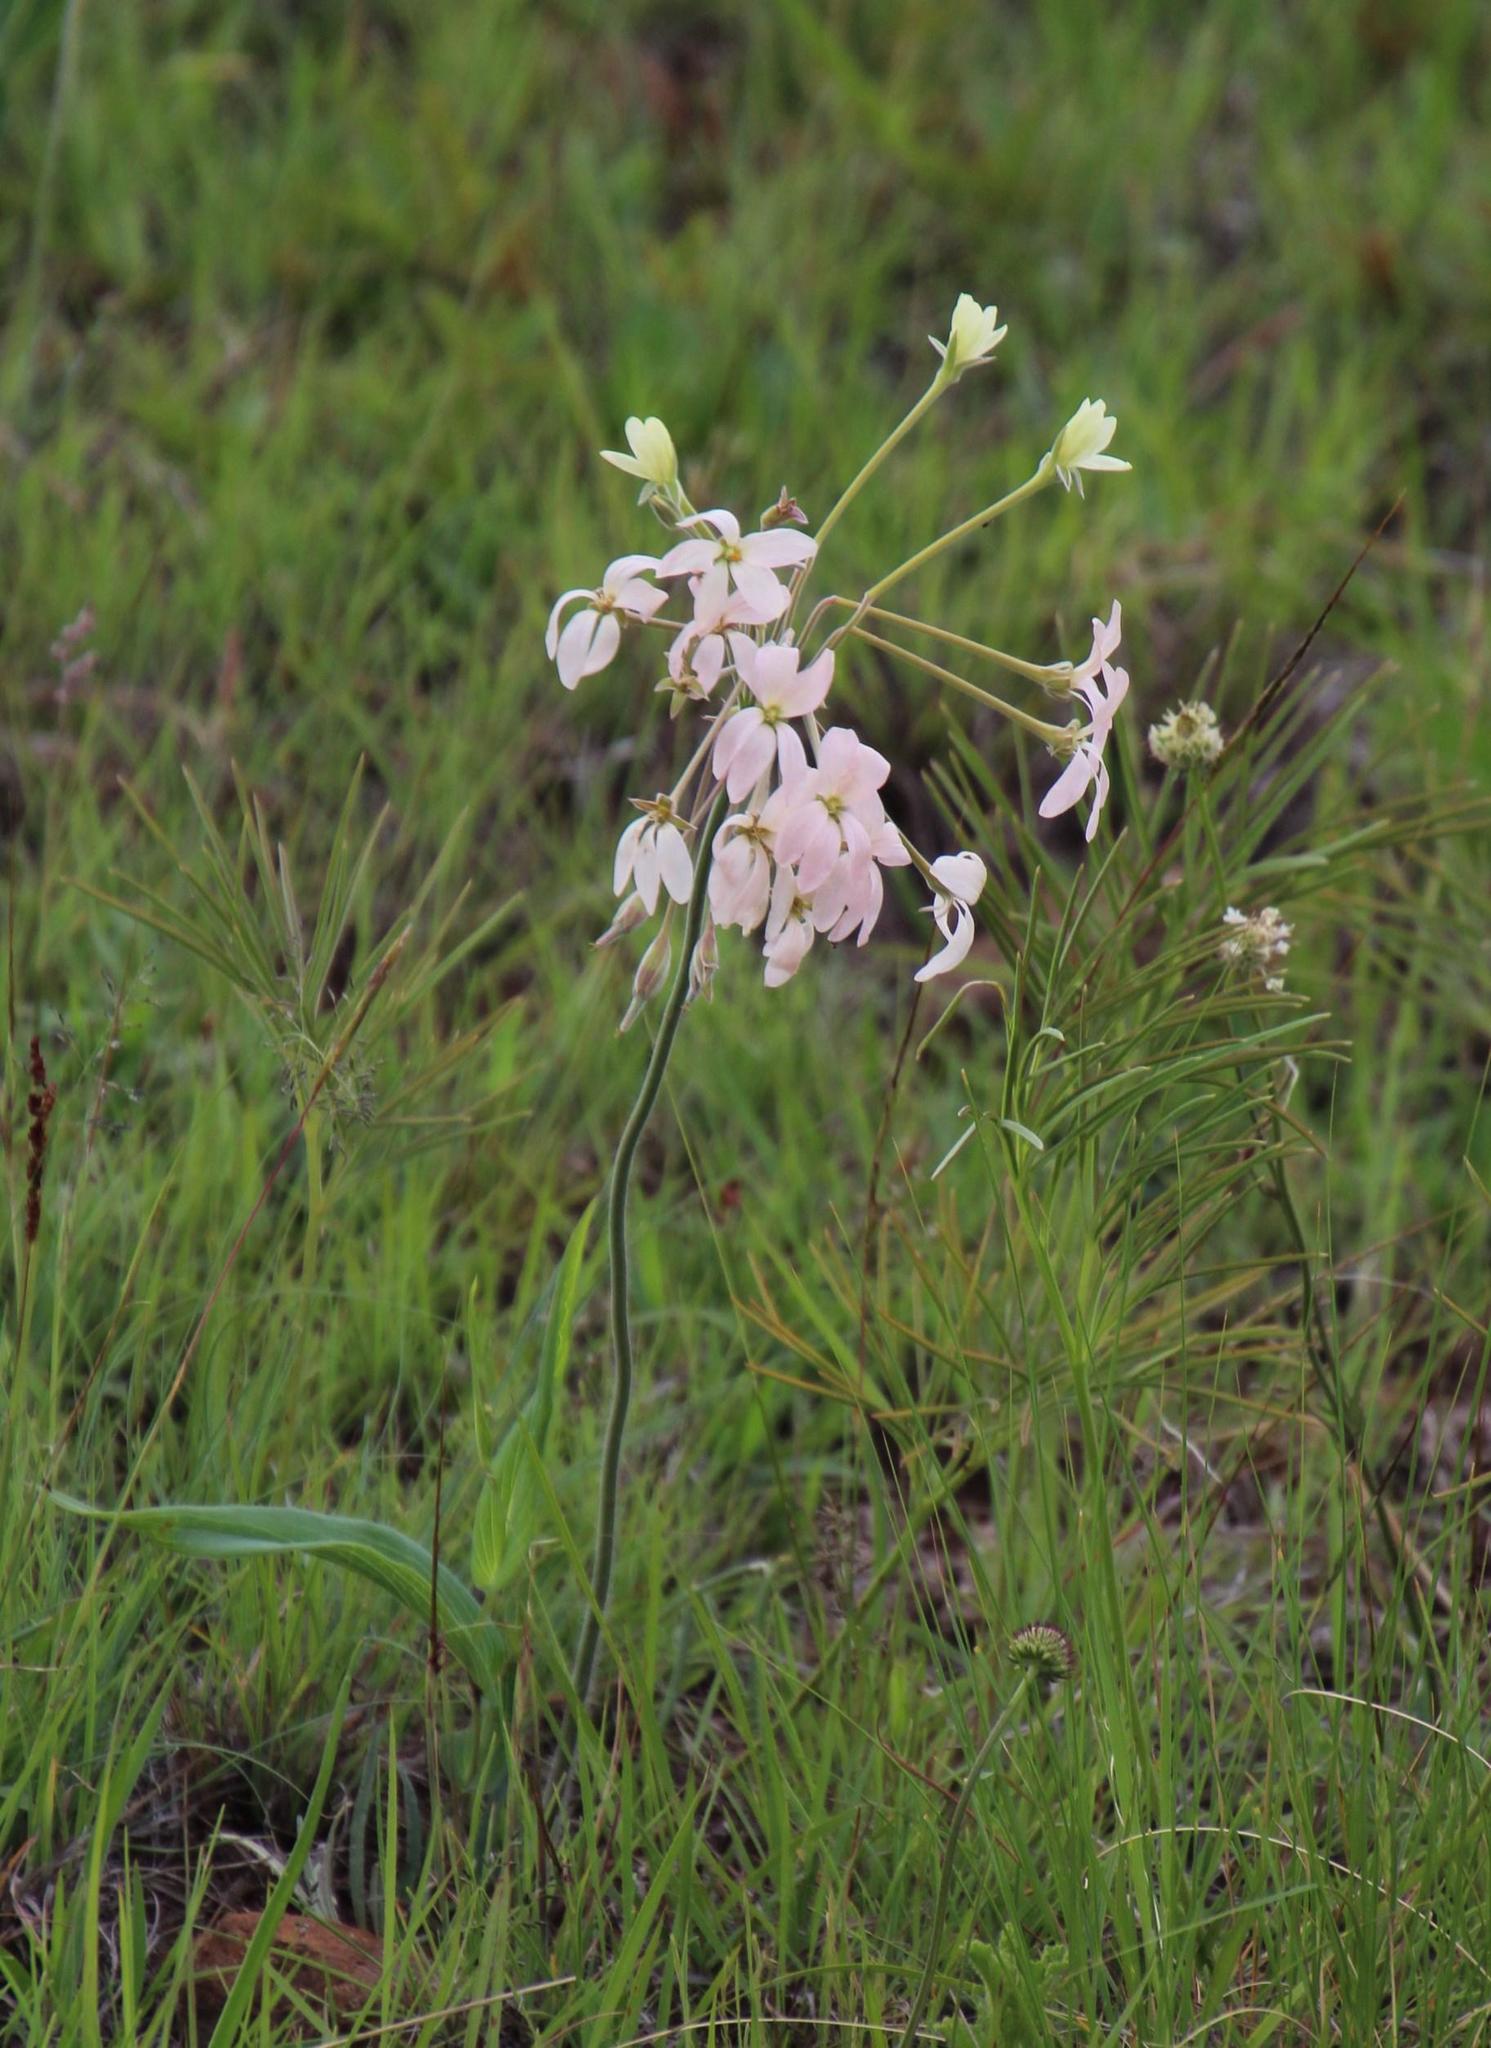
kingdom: Plantae
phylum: Tracheophyta
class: Magnoliopsida
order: Geraniales
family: Geraniaceae
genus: Pelargonium
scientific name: Pelargonium luridum
